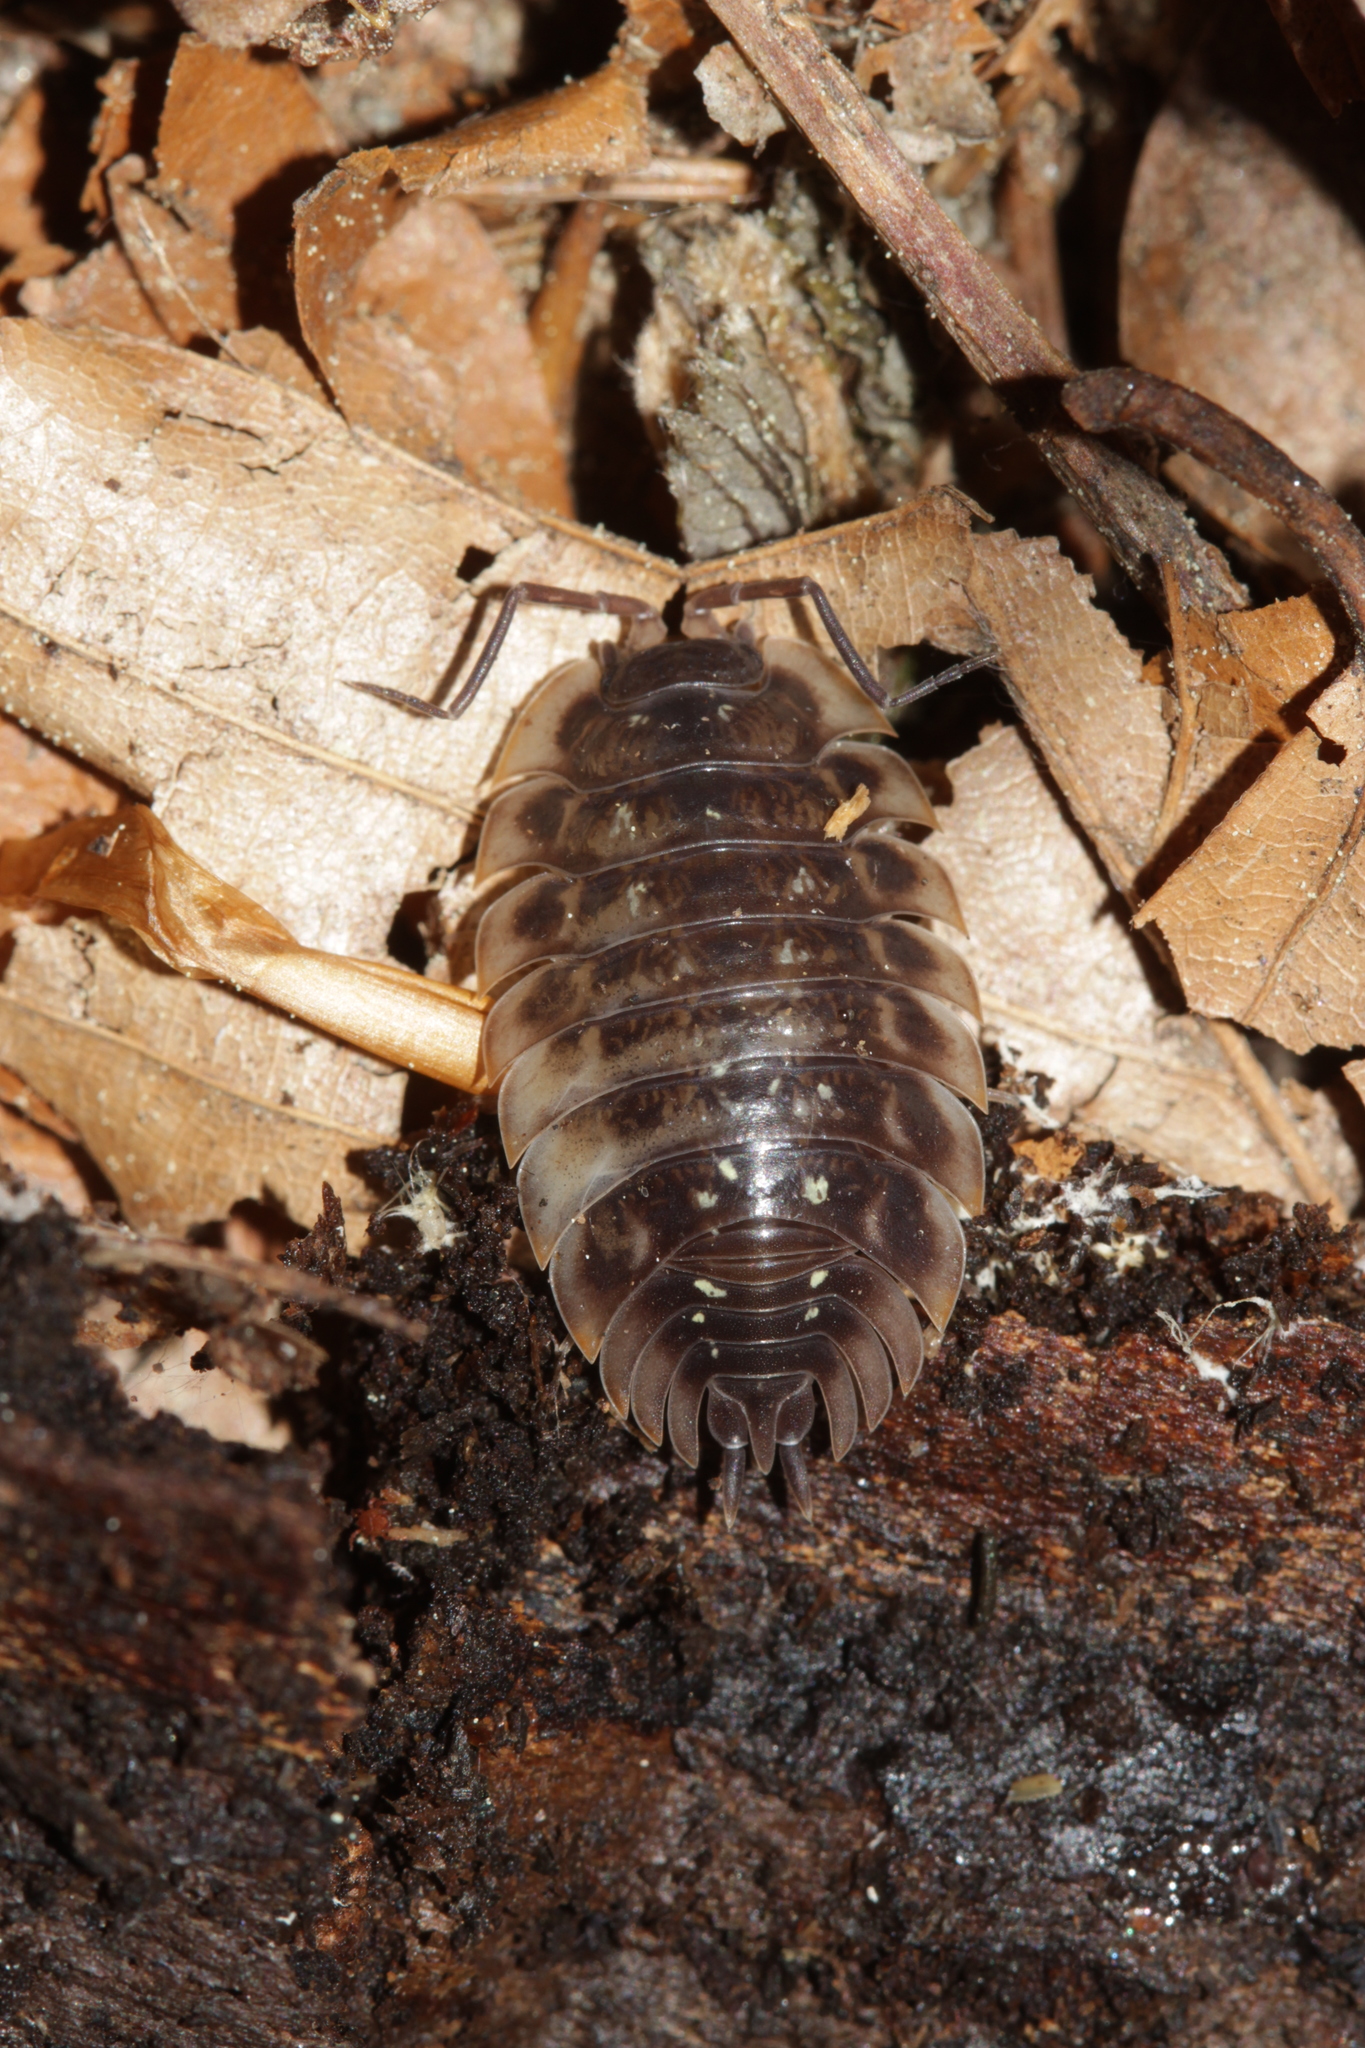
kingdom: Animalia
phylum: Arthropoda
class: Malacostraca
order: Isopoda
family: Oniscidae
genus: Oniscus
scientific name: Oniscus asellus
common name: Common shiny woodlouse
